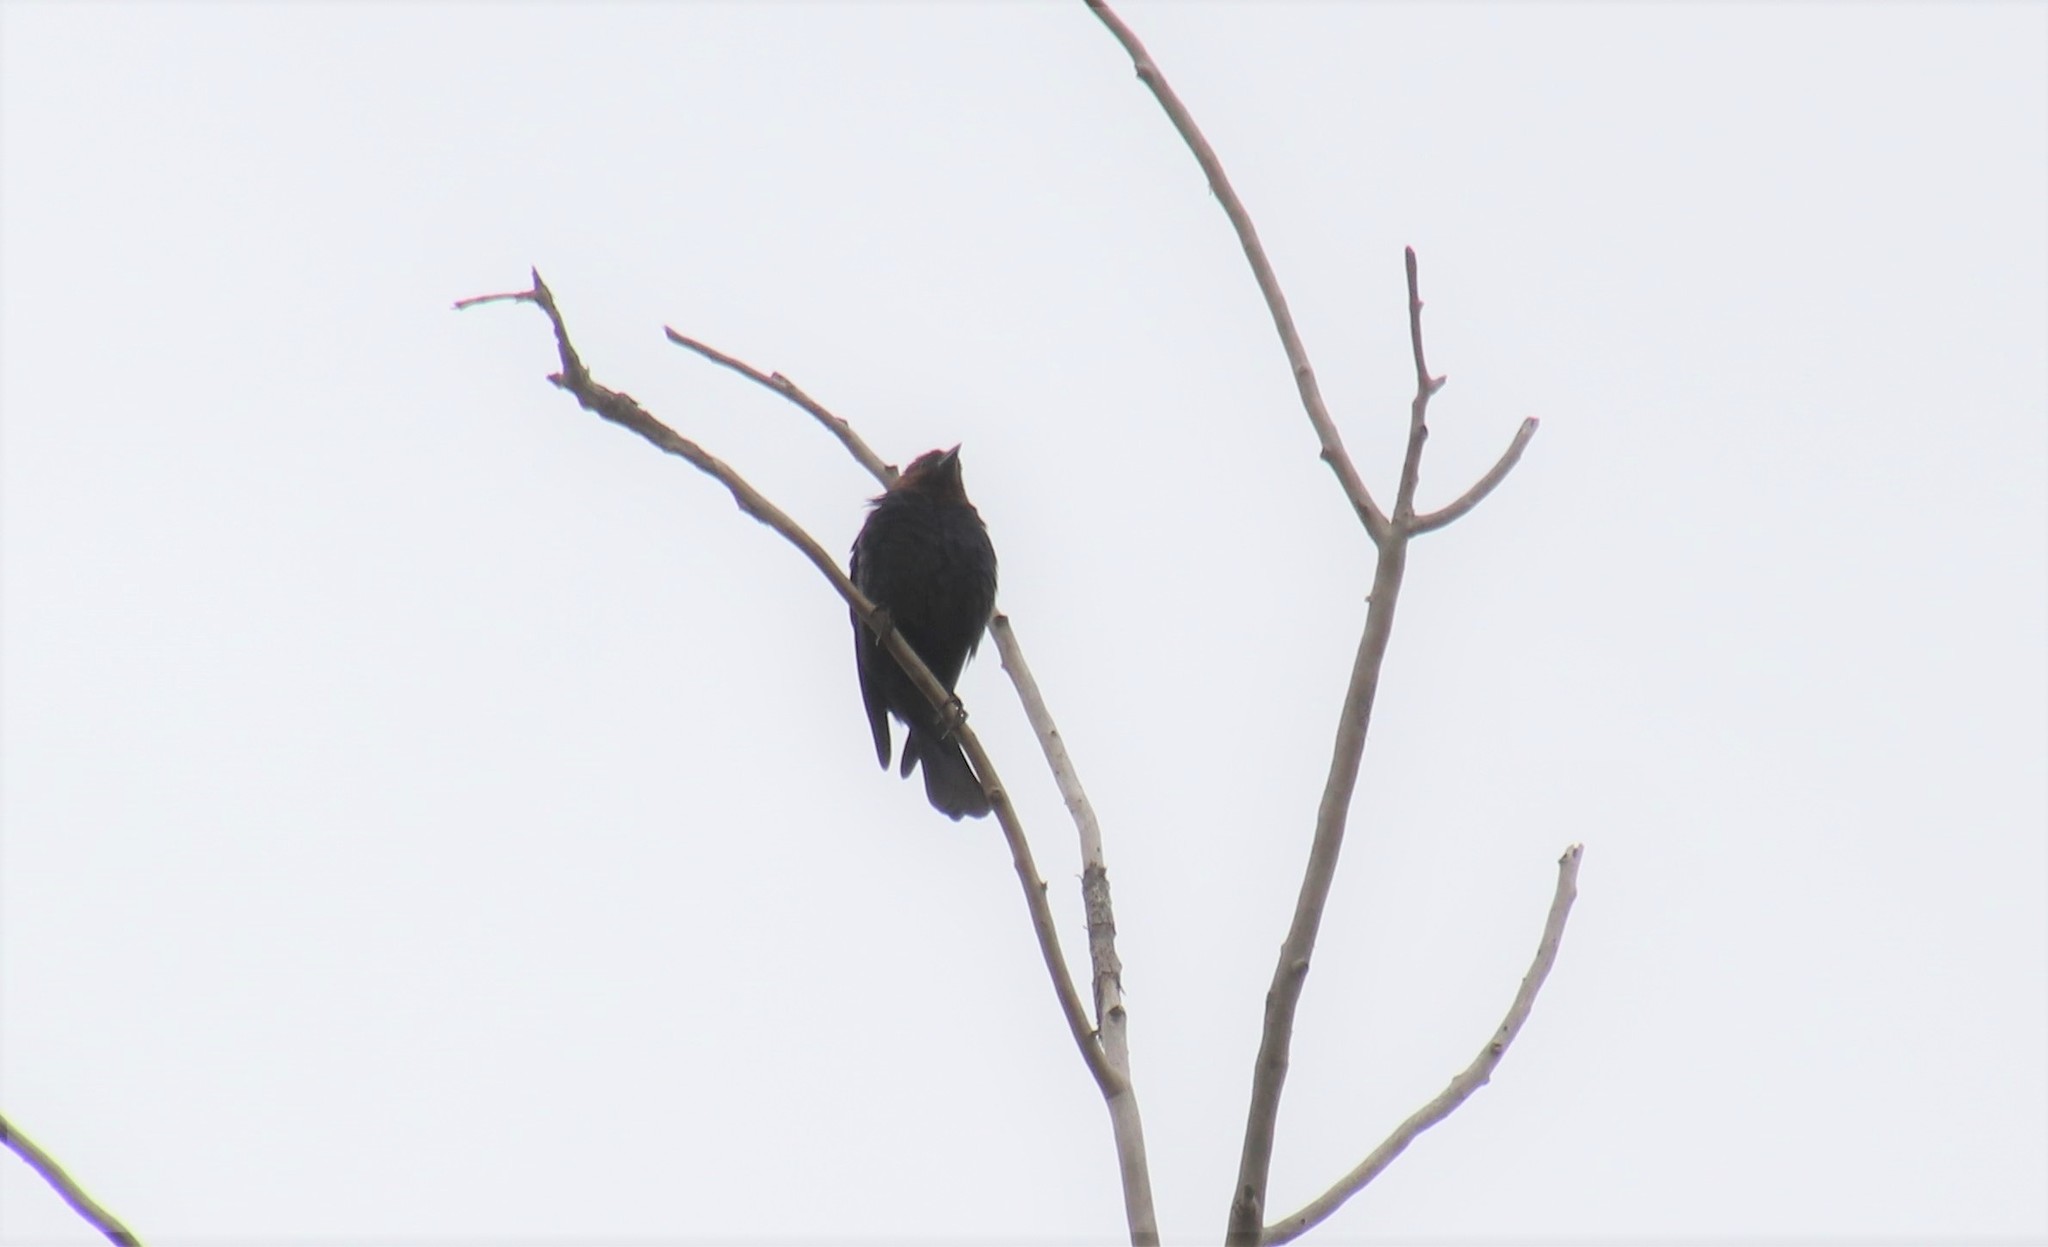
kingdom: Animalia
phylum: Chordata
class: Aves
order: Passeriformes
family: Icteridae
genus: Molothrus
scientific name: Molothrus ater
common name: Brown-headed cowbird
